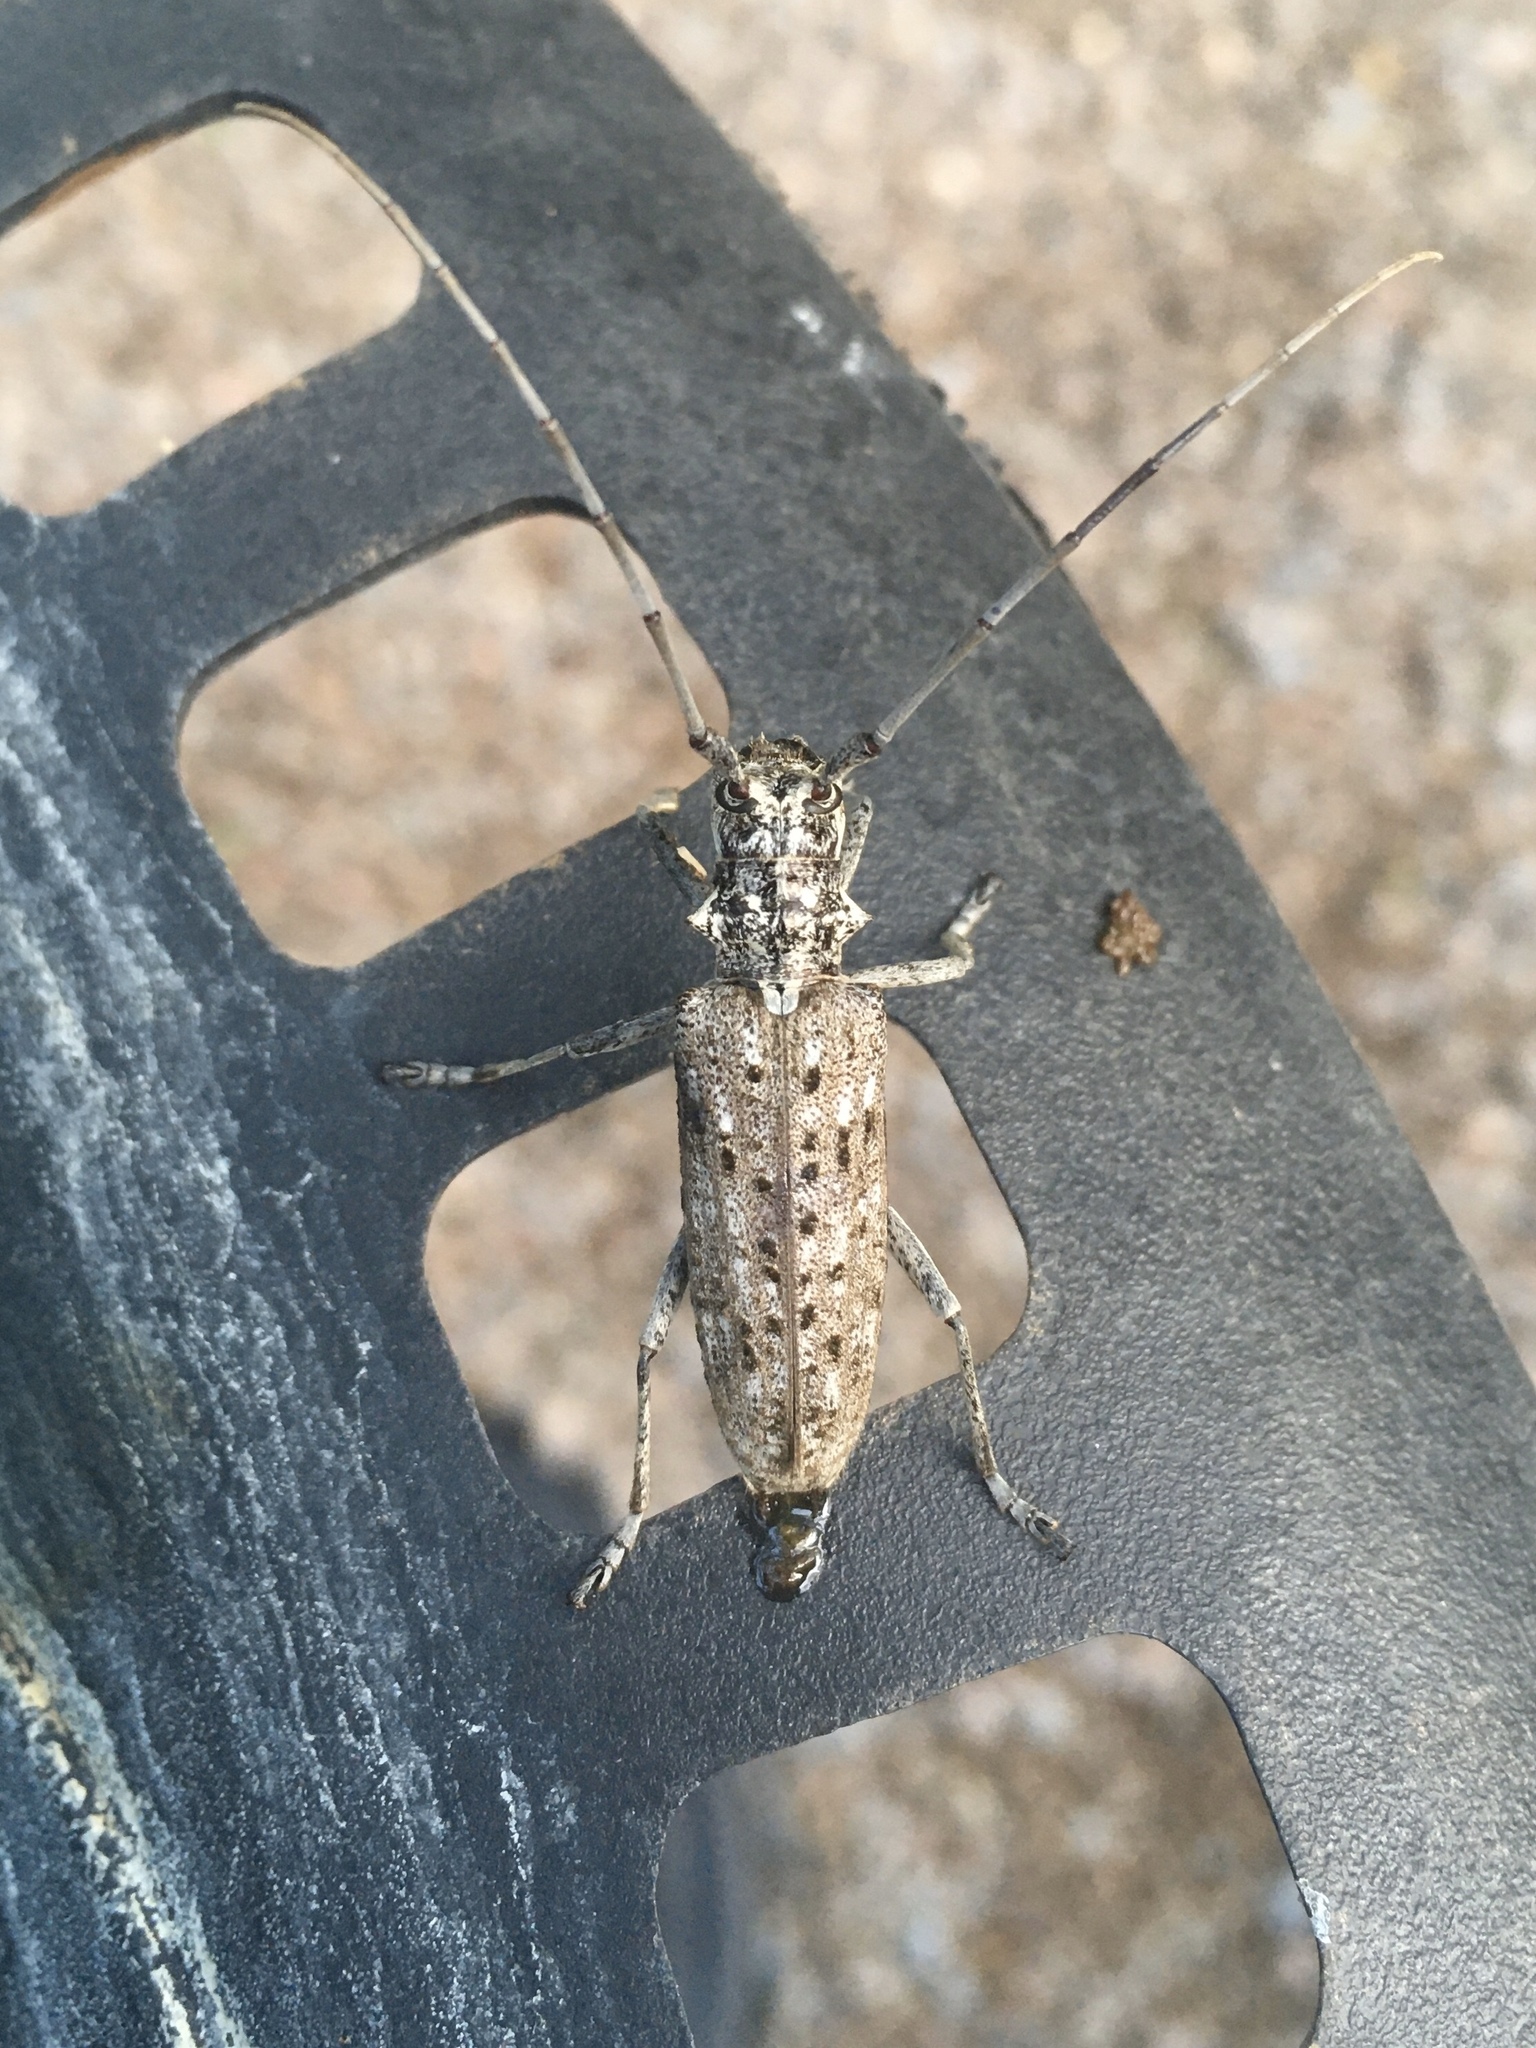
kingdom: Animalia
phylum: Arthropoda
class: Insecta
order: Coleoptera
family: Cerambycidae
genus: Monochamus
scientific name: Monochamus notatus
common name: Northeastern pine sawyer beetle
